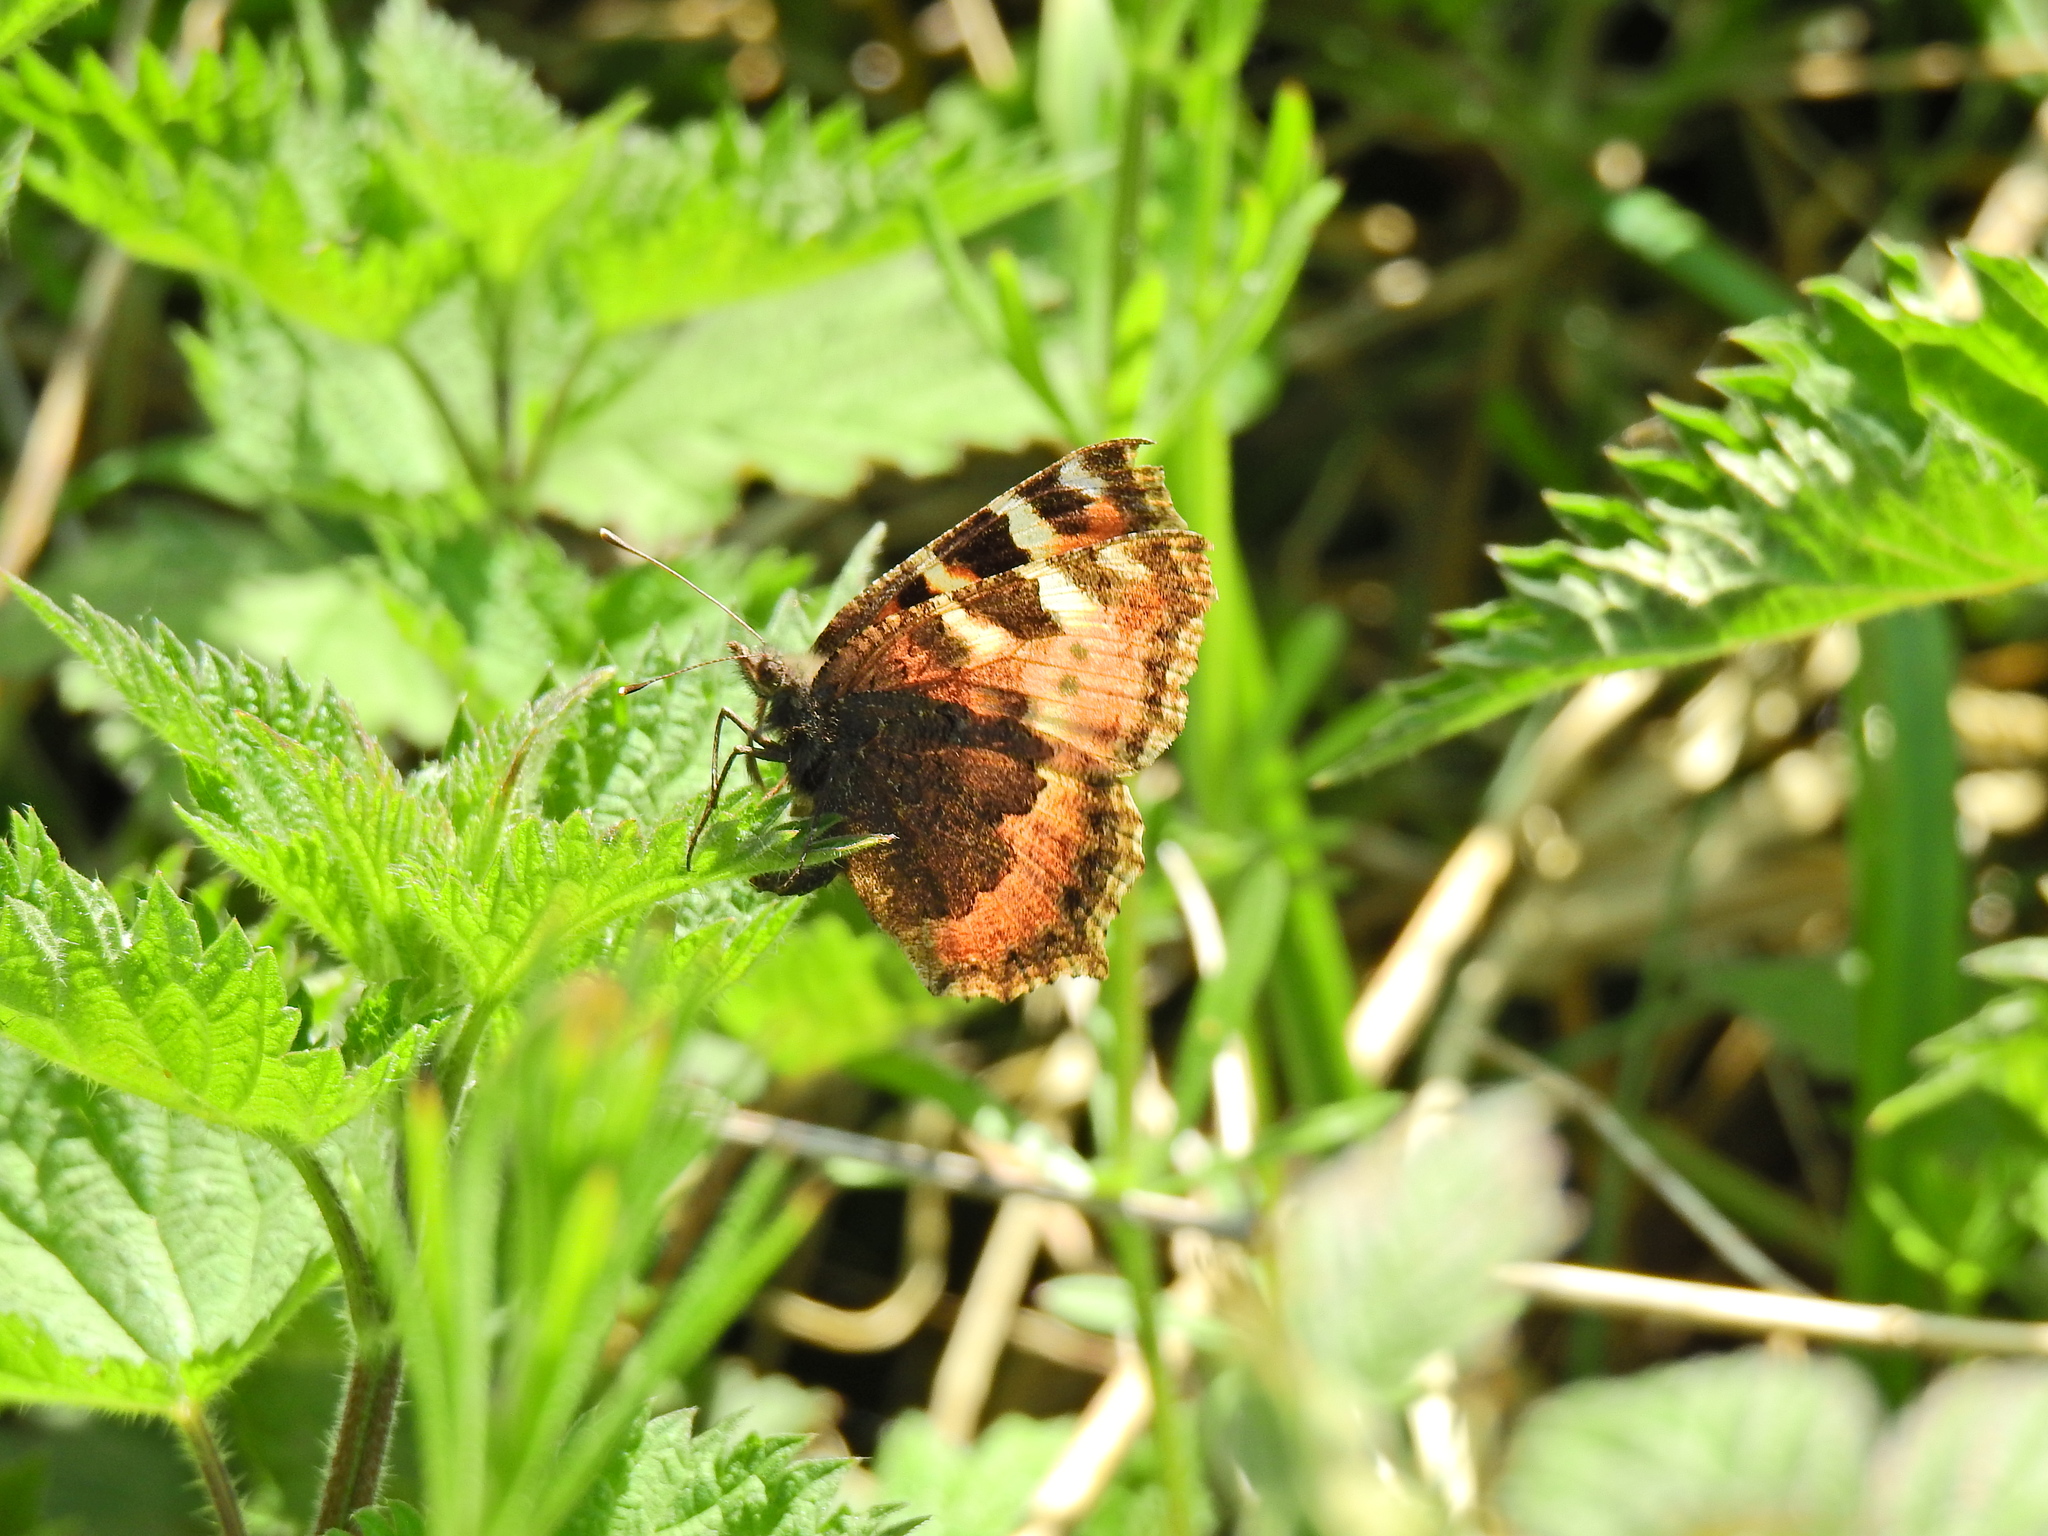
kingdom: Animalia
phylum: Arthropoda
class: Insecta
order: Lepidoptera
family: Nymphalidae
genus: Aglais
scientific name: Aglais urticae
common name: Small tortoiseshell
